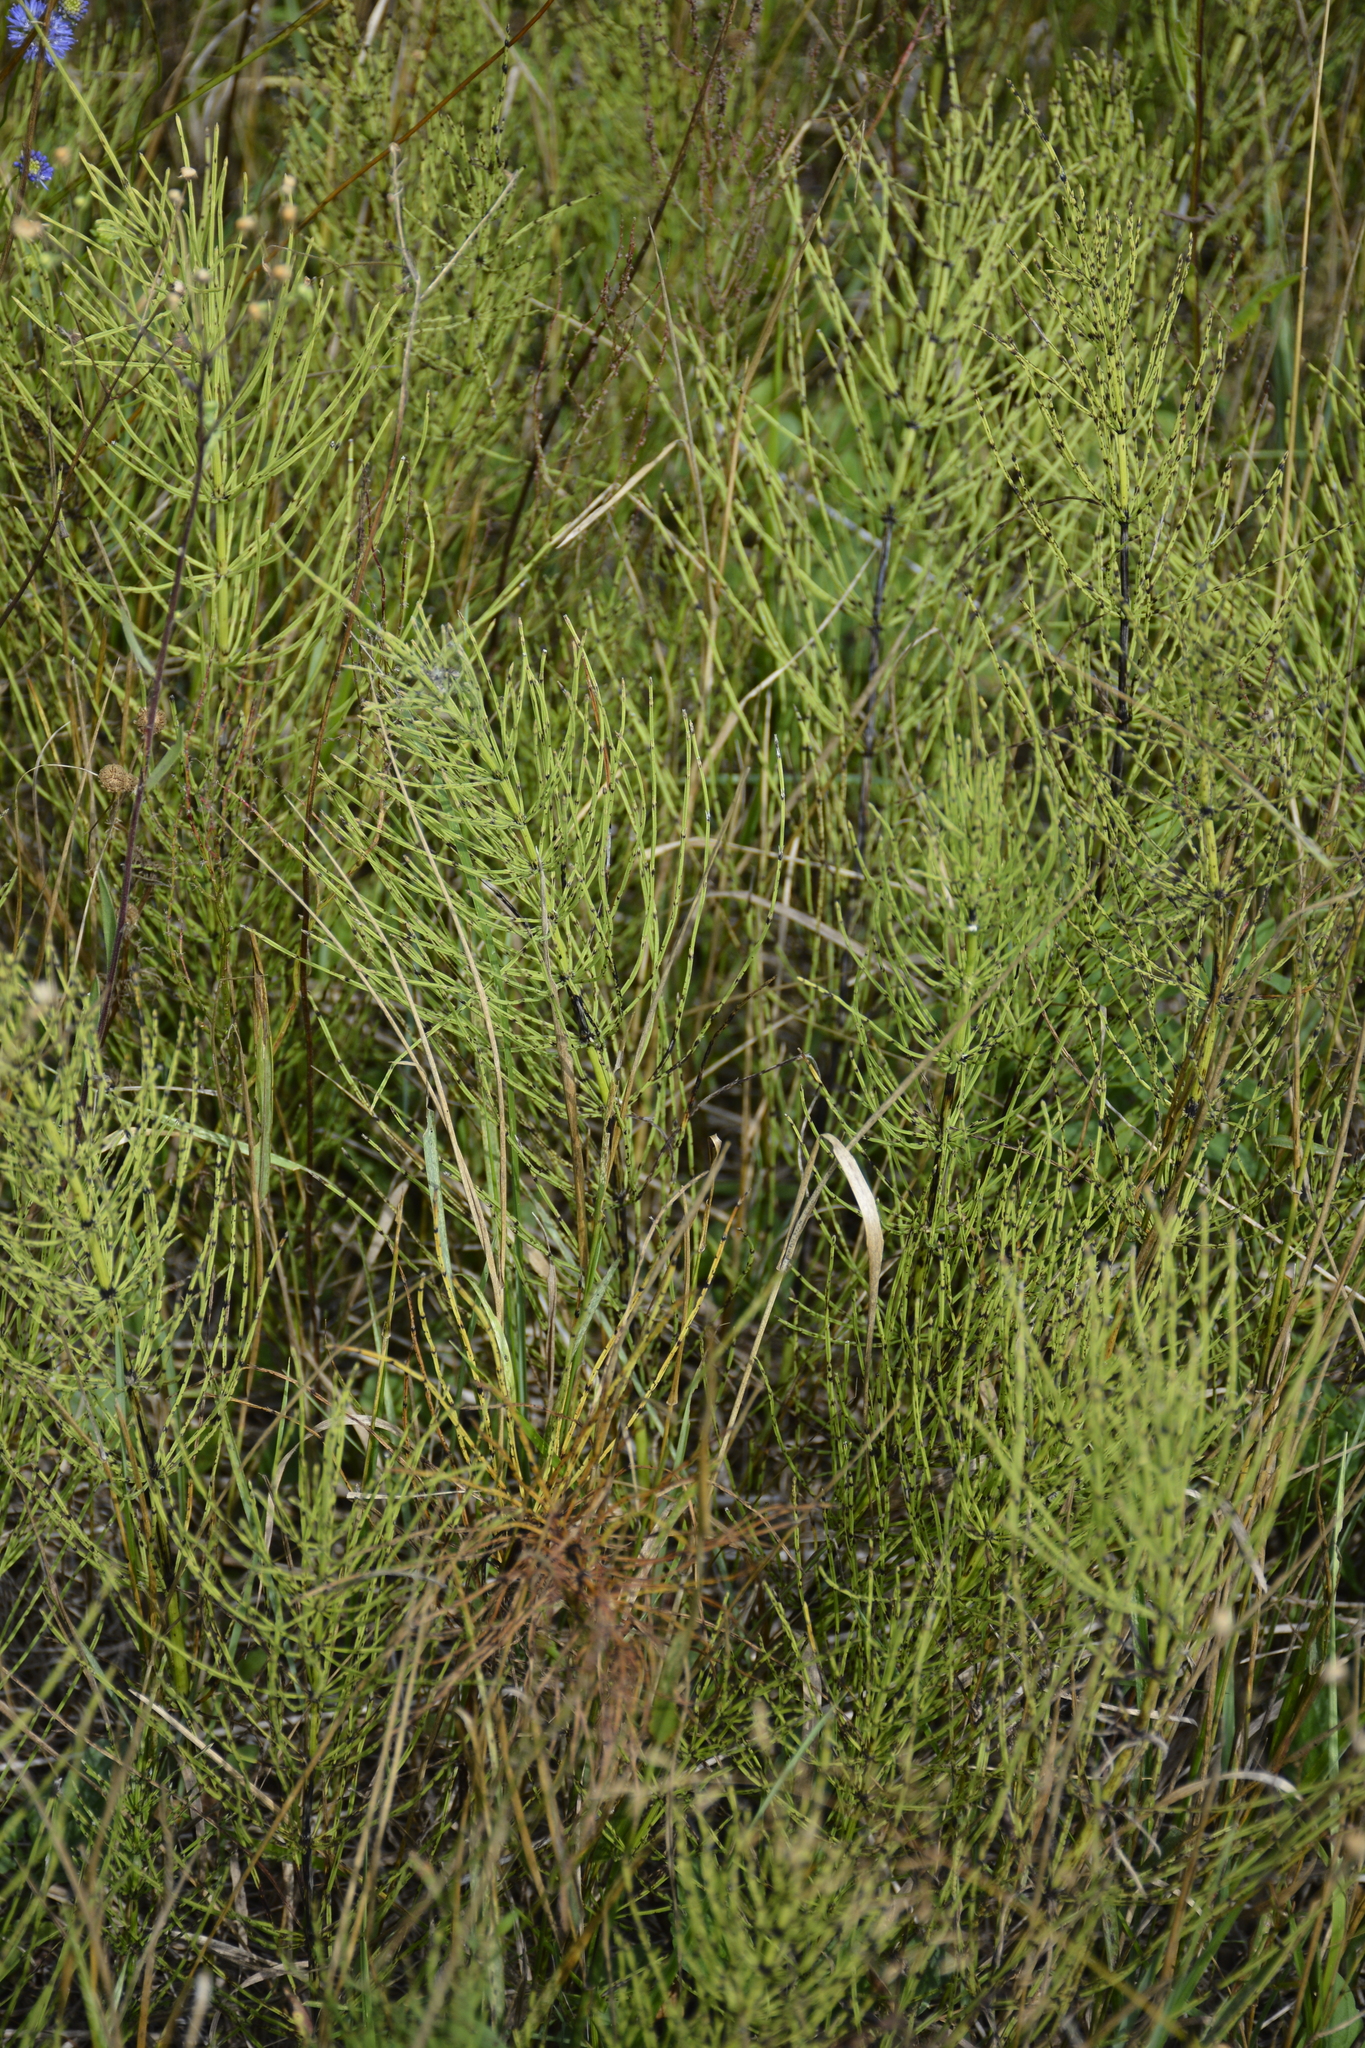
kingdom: Plantae
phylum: Tracheophyta
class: Polypodiopsida
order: Equisetales
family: Equisetaceae
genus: Equisetum
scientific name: Equisetum arvense
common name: Field horsetail
